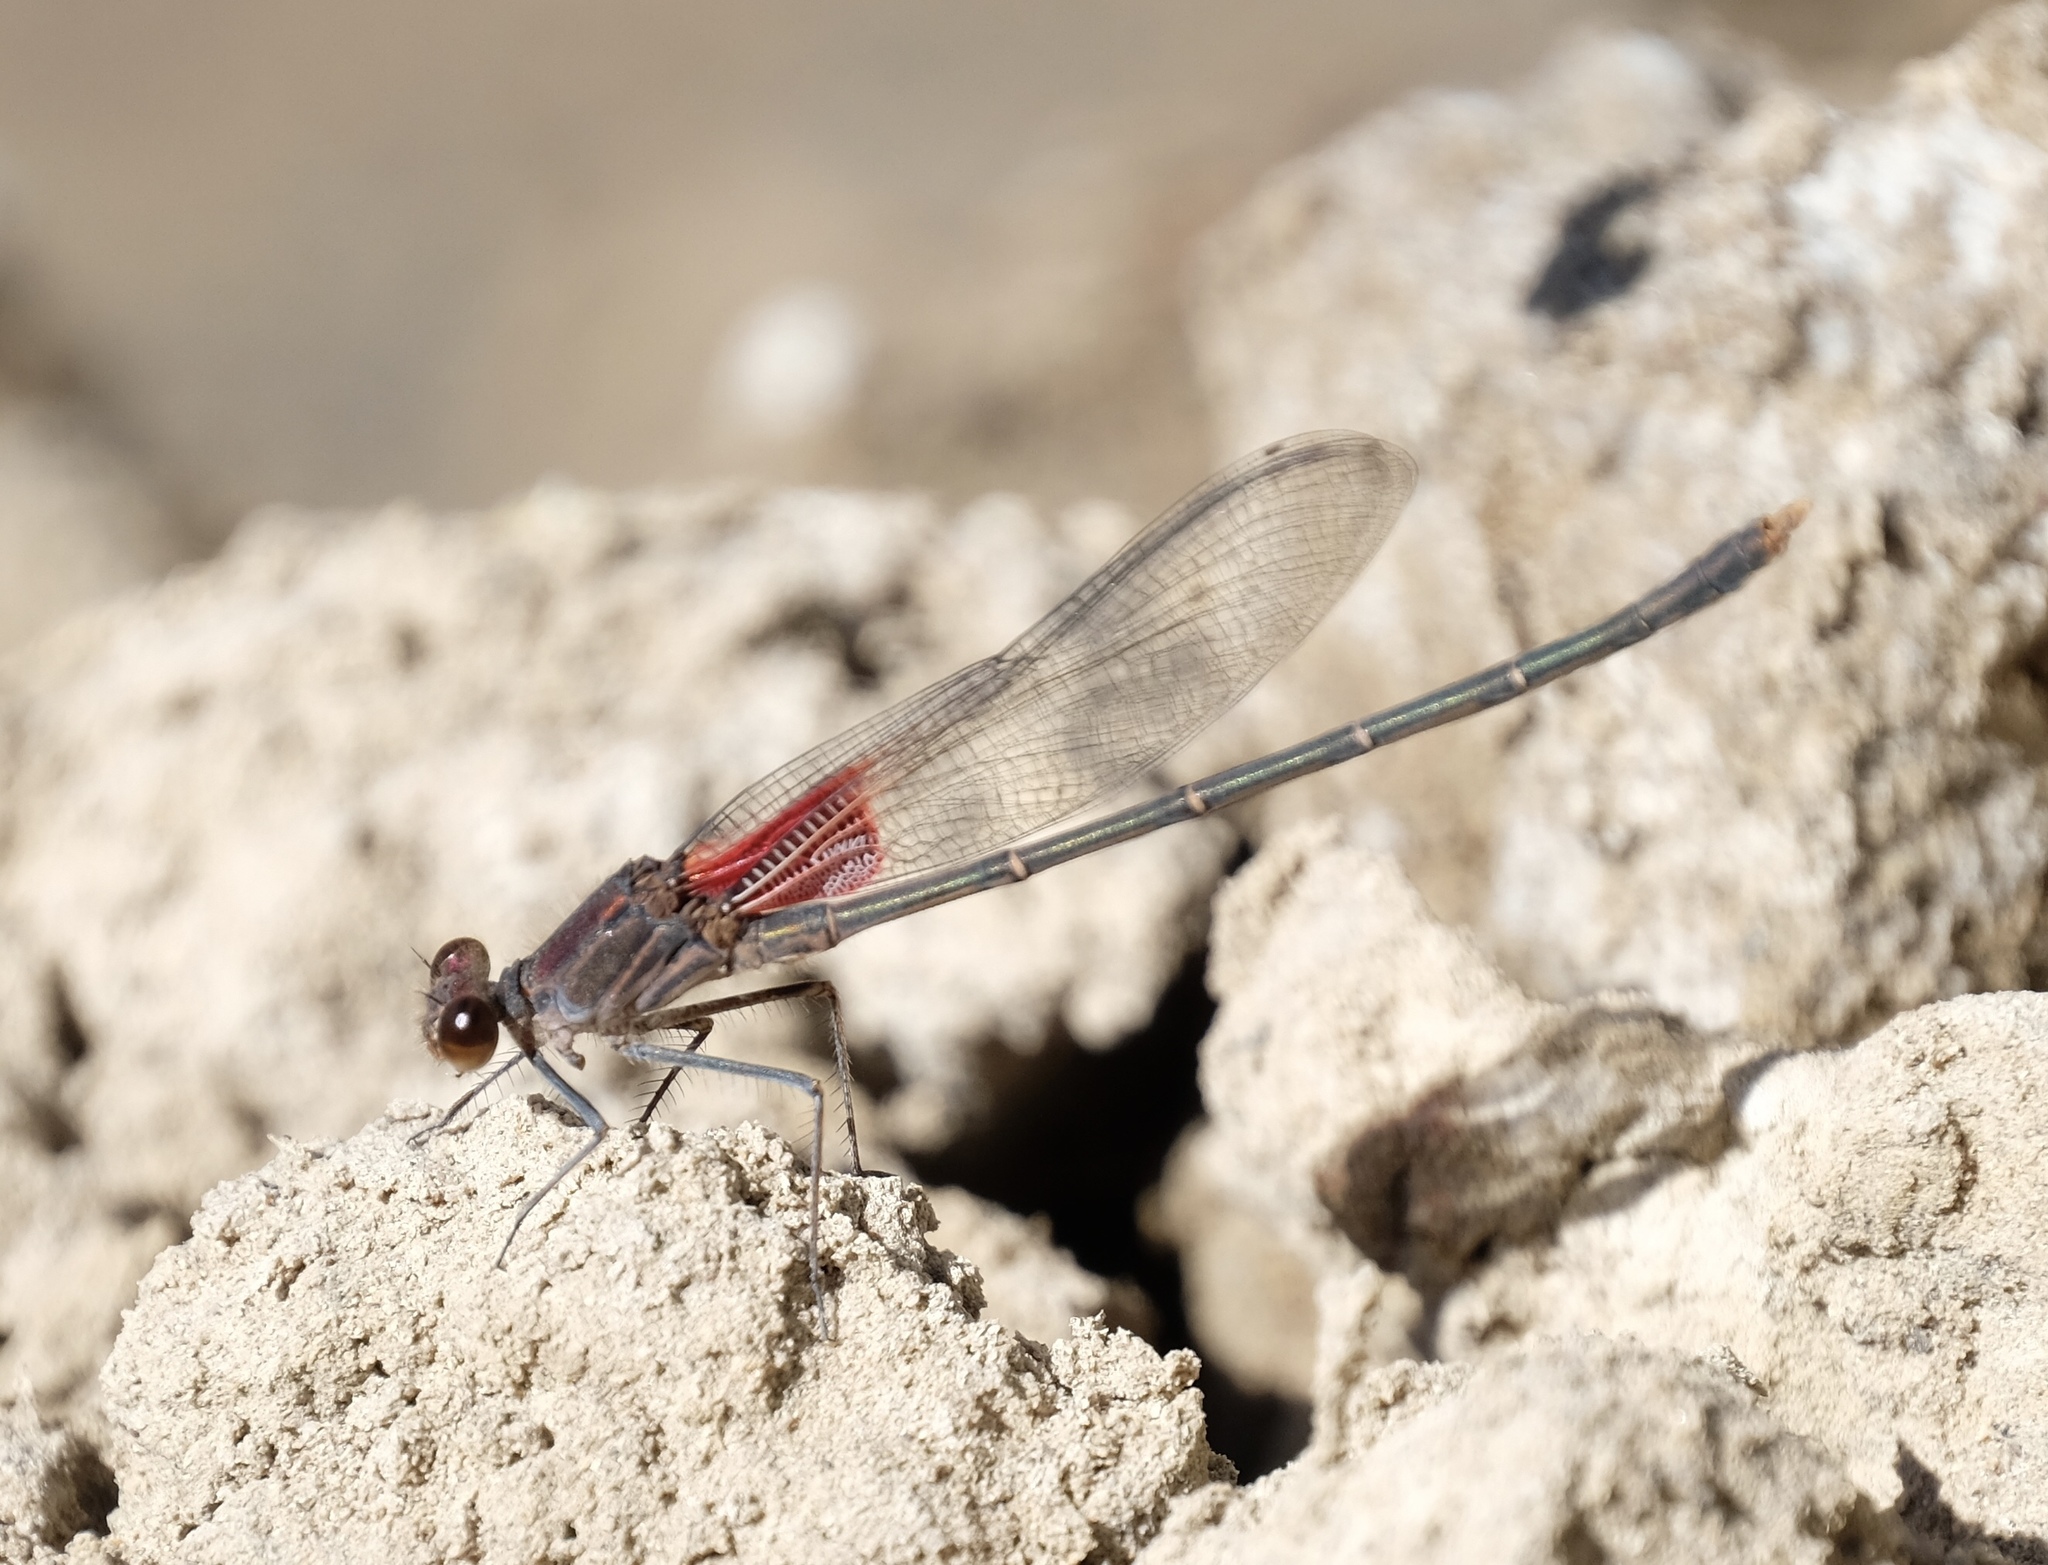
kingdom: Animalia
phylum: Arthropoda
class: Insecta
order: Odonata
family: Calopterygidae
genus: Hetaerina
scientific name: Hetaerina americana
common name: American rubyspot
